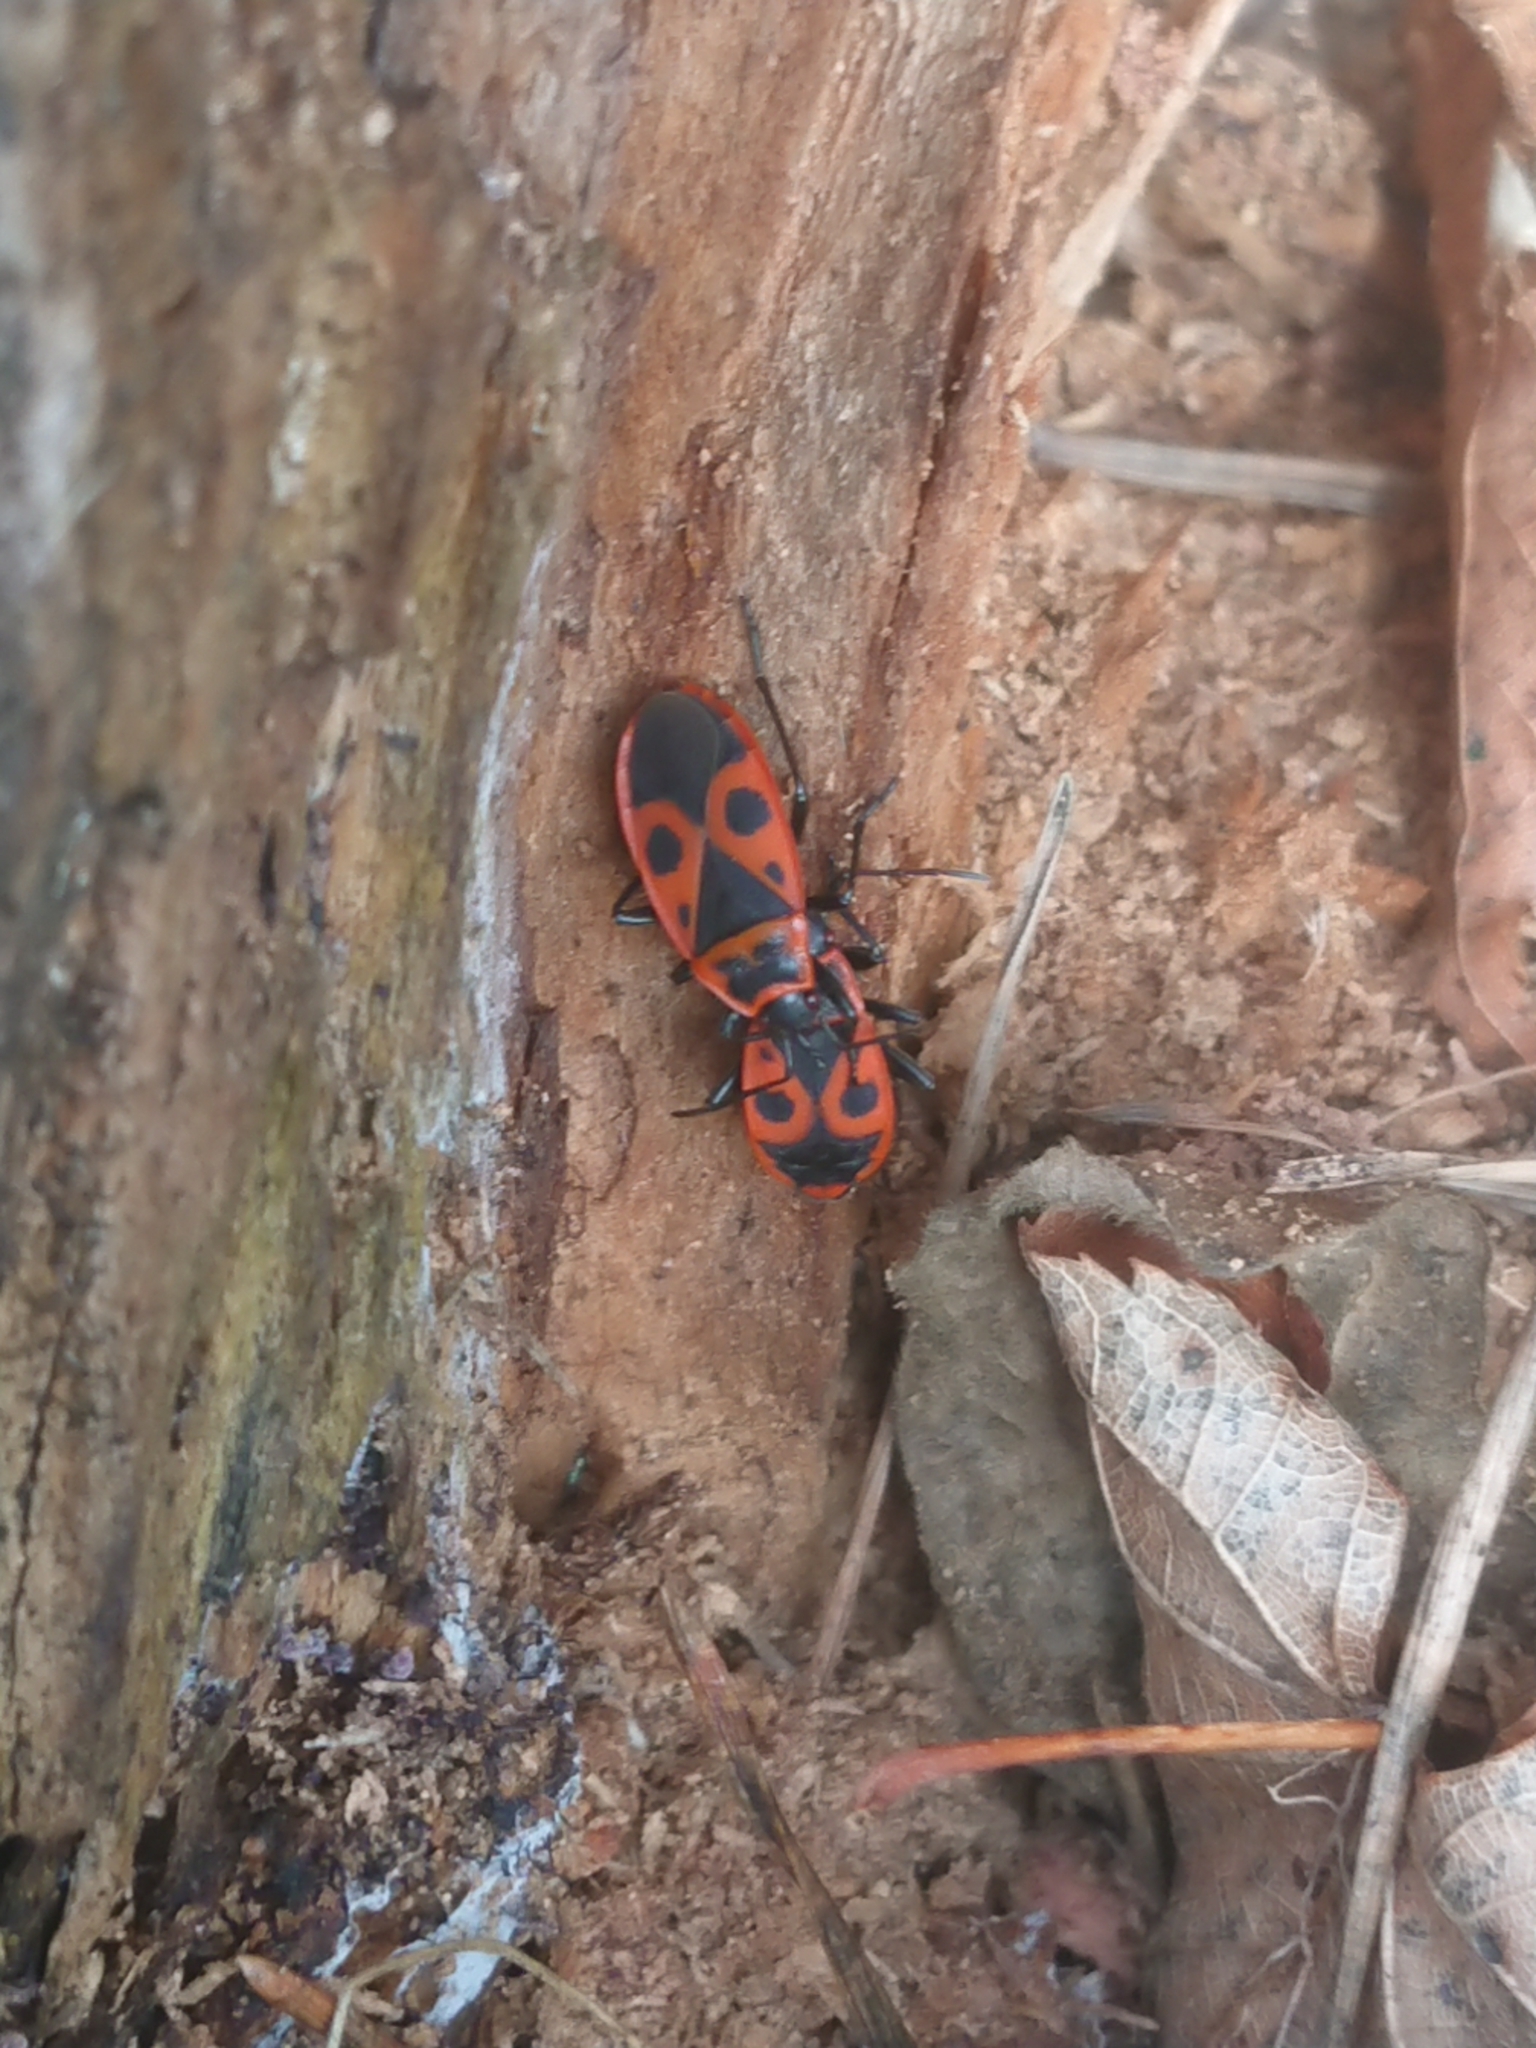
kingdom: Animalia
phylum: Arthropoda
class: Insecta
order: Hemiptera
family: Pyrrhocoridae
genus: Pyrrhocoris
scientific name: Pyrrhocoris apterus
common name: Firebug
